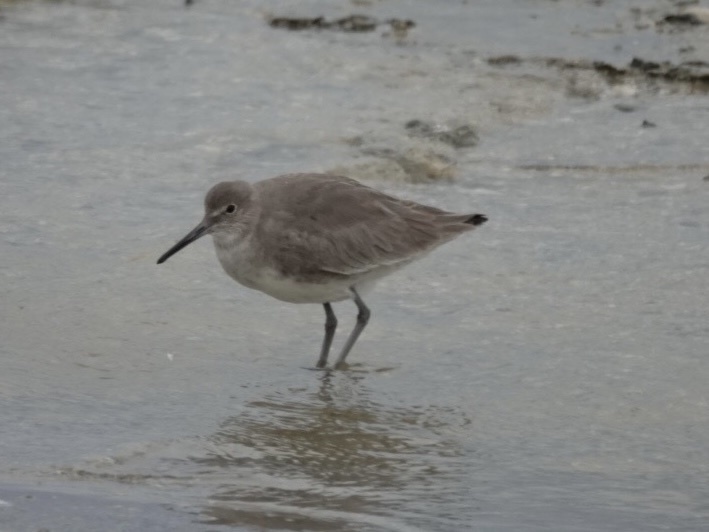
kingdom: Animalia
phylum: Chordata
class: Aves
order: Charadriiformes
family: Scolopacidae
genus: Tringa
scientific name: Tringa semipalmata
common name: Willet
